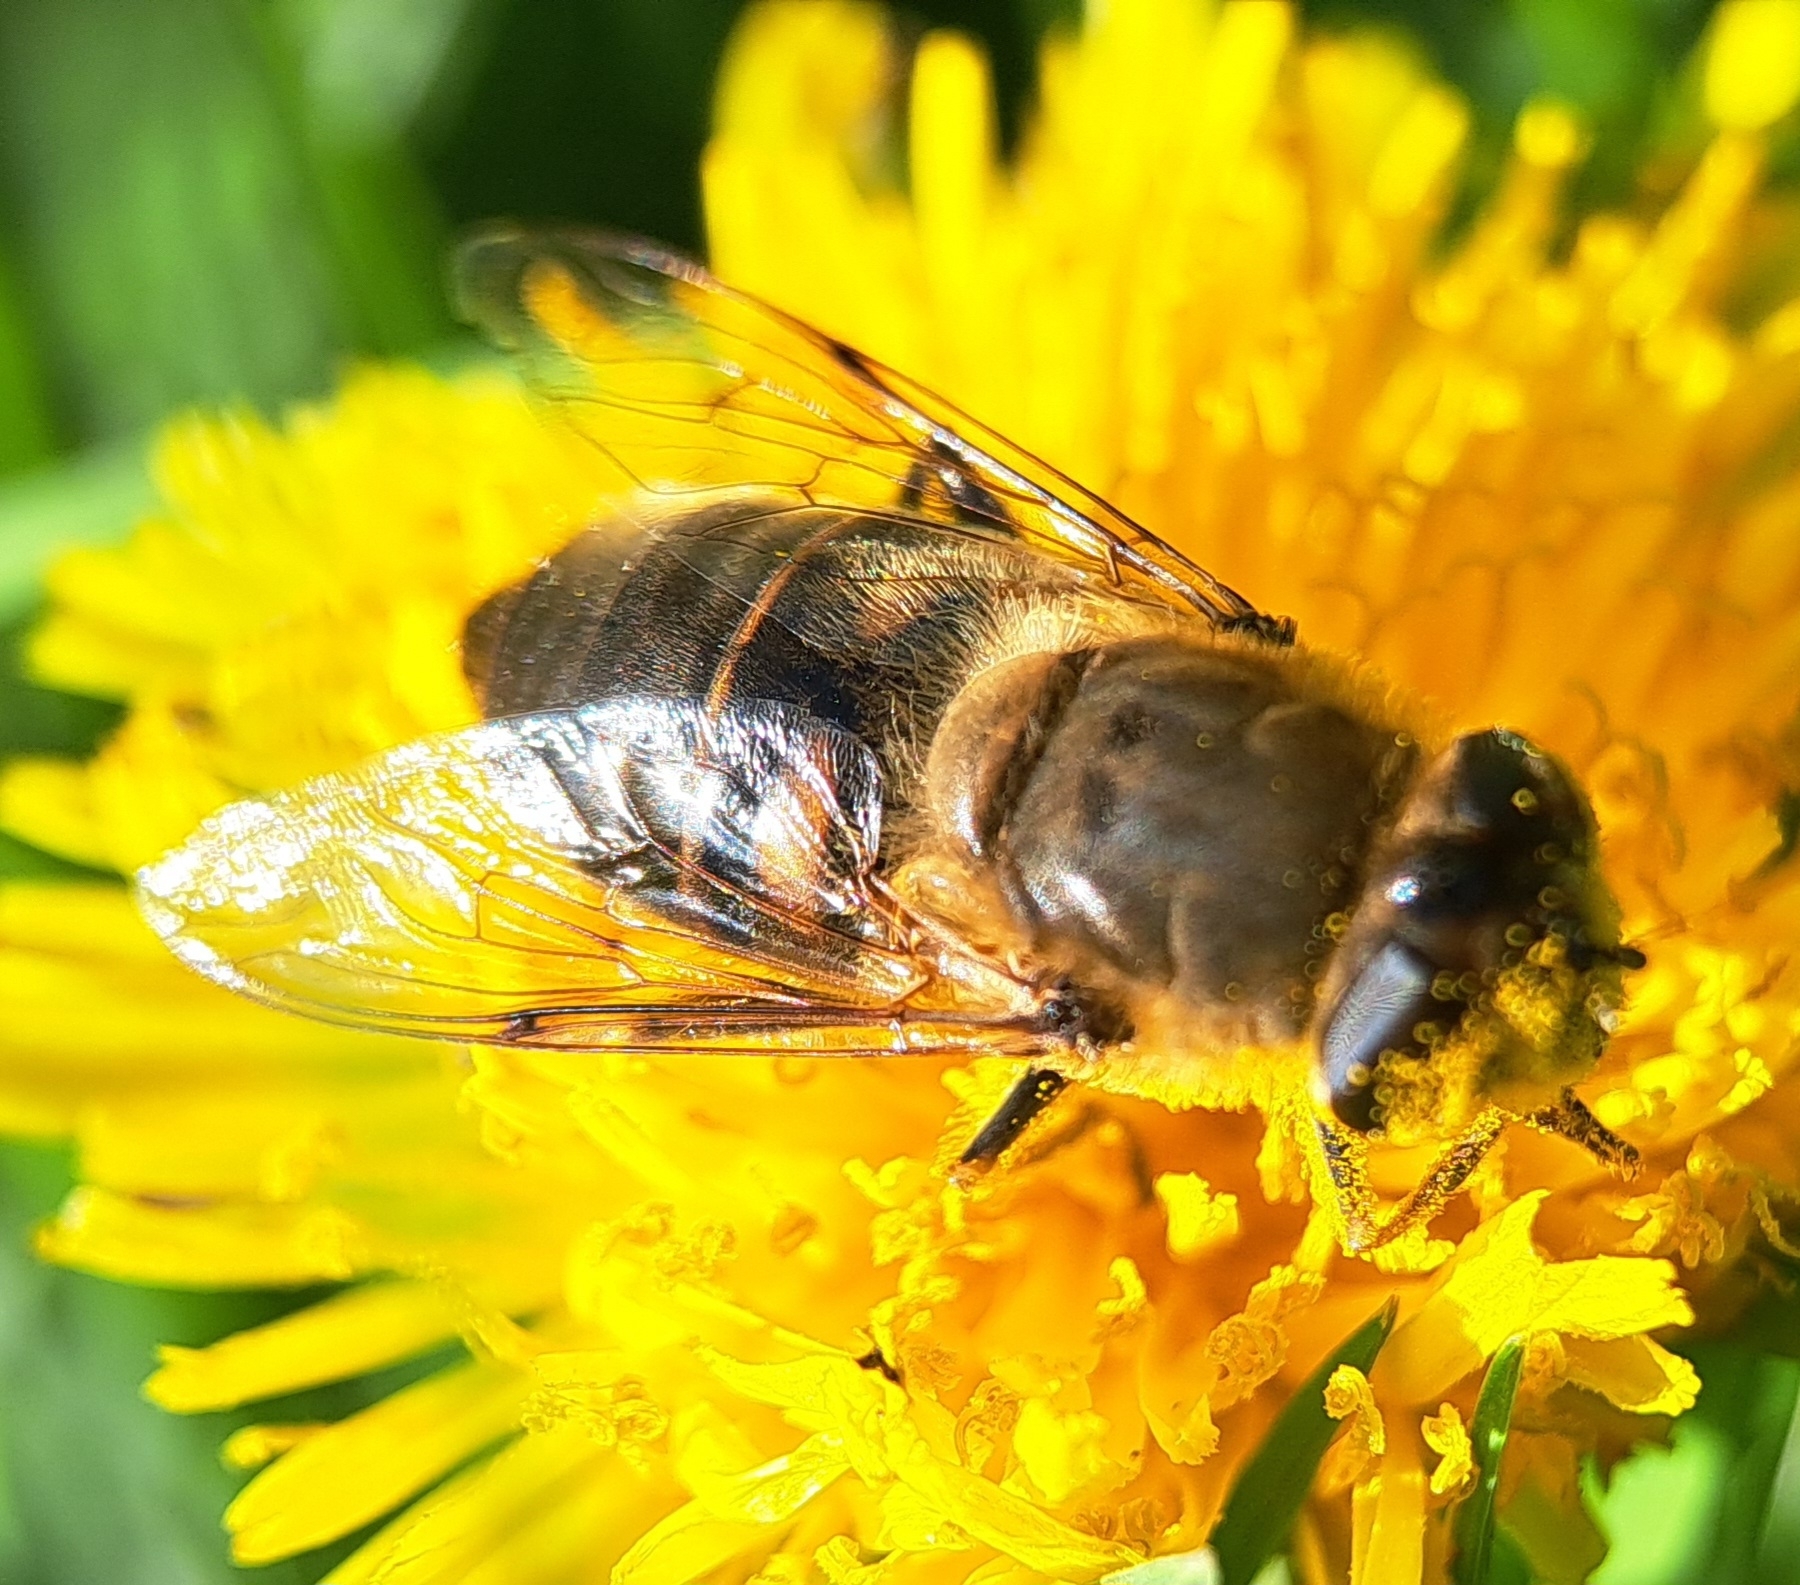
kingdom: Animalia
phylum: Arthropoda
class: Insecta
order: Diptera
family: Syrphidae
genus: Eristalis
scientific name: Eristalis tenax
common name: Drone fly
